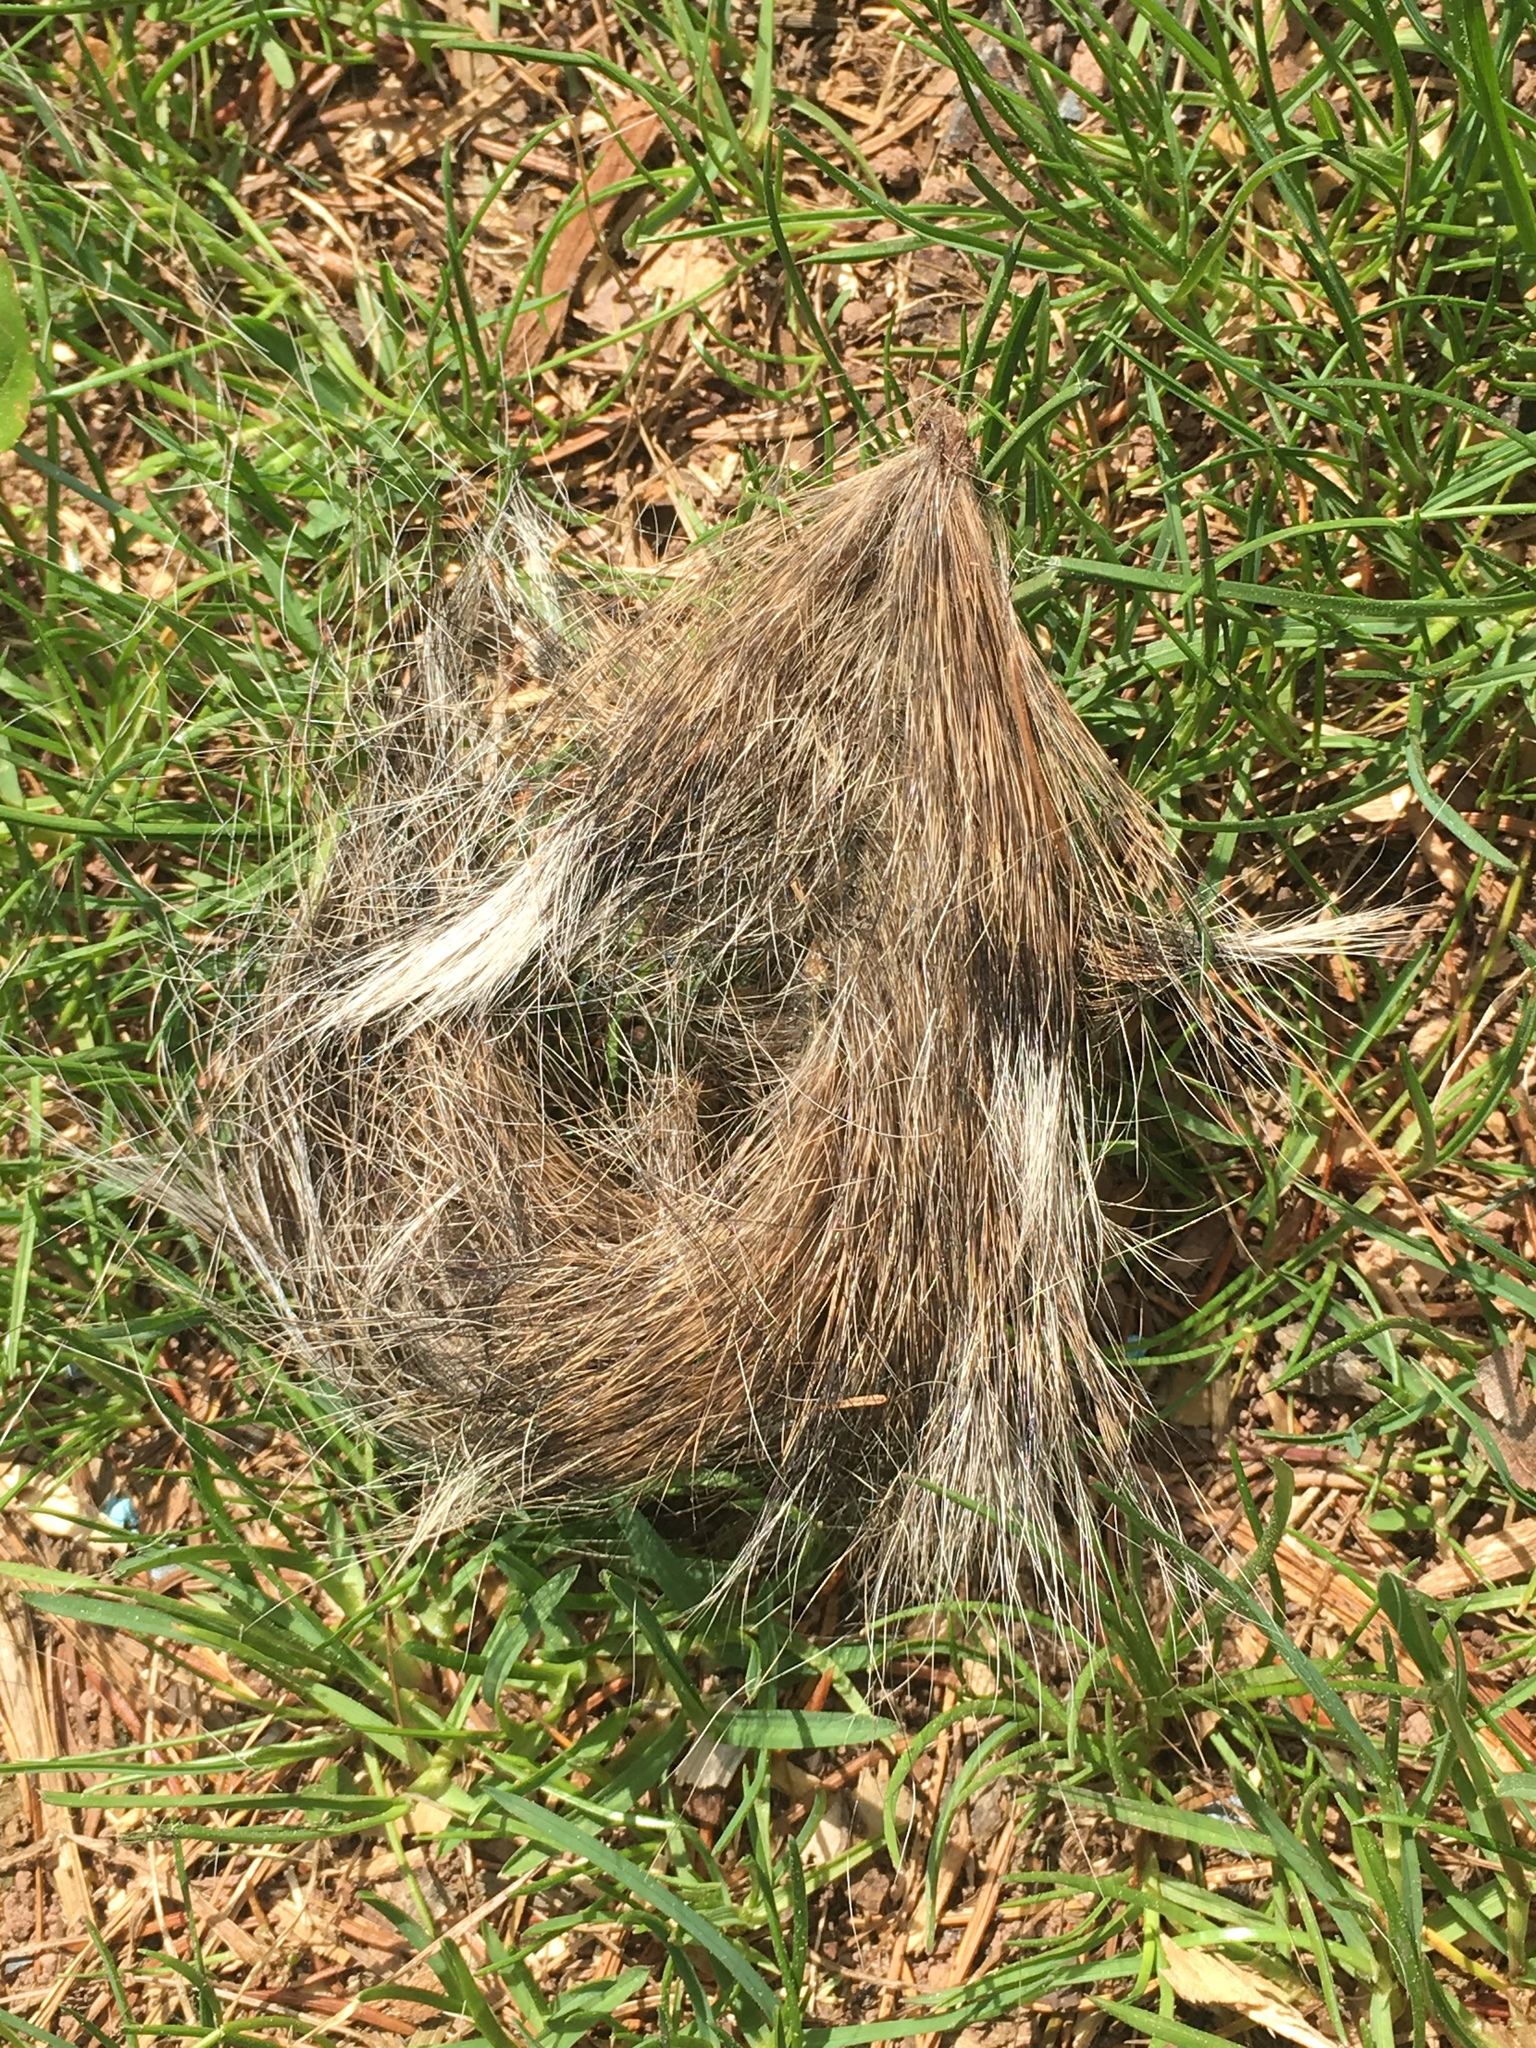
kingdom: Animalia
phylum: Chordata
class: Mammalia
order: Carnivora
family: Procyonidae
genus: Procyon
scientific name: Procyon lotor
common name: Raccoon
